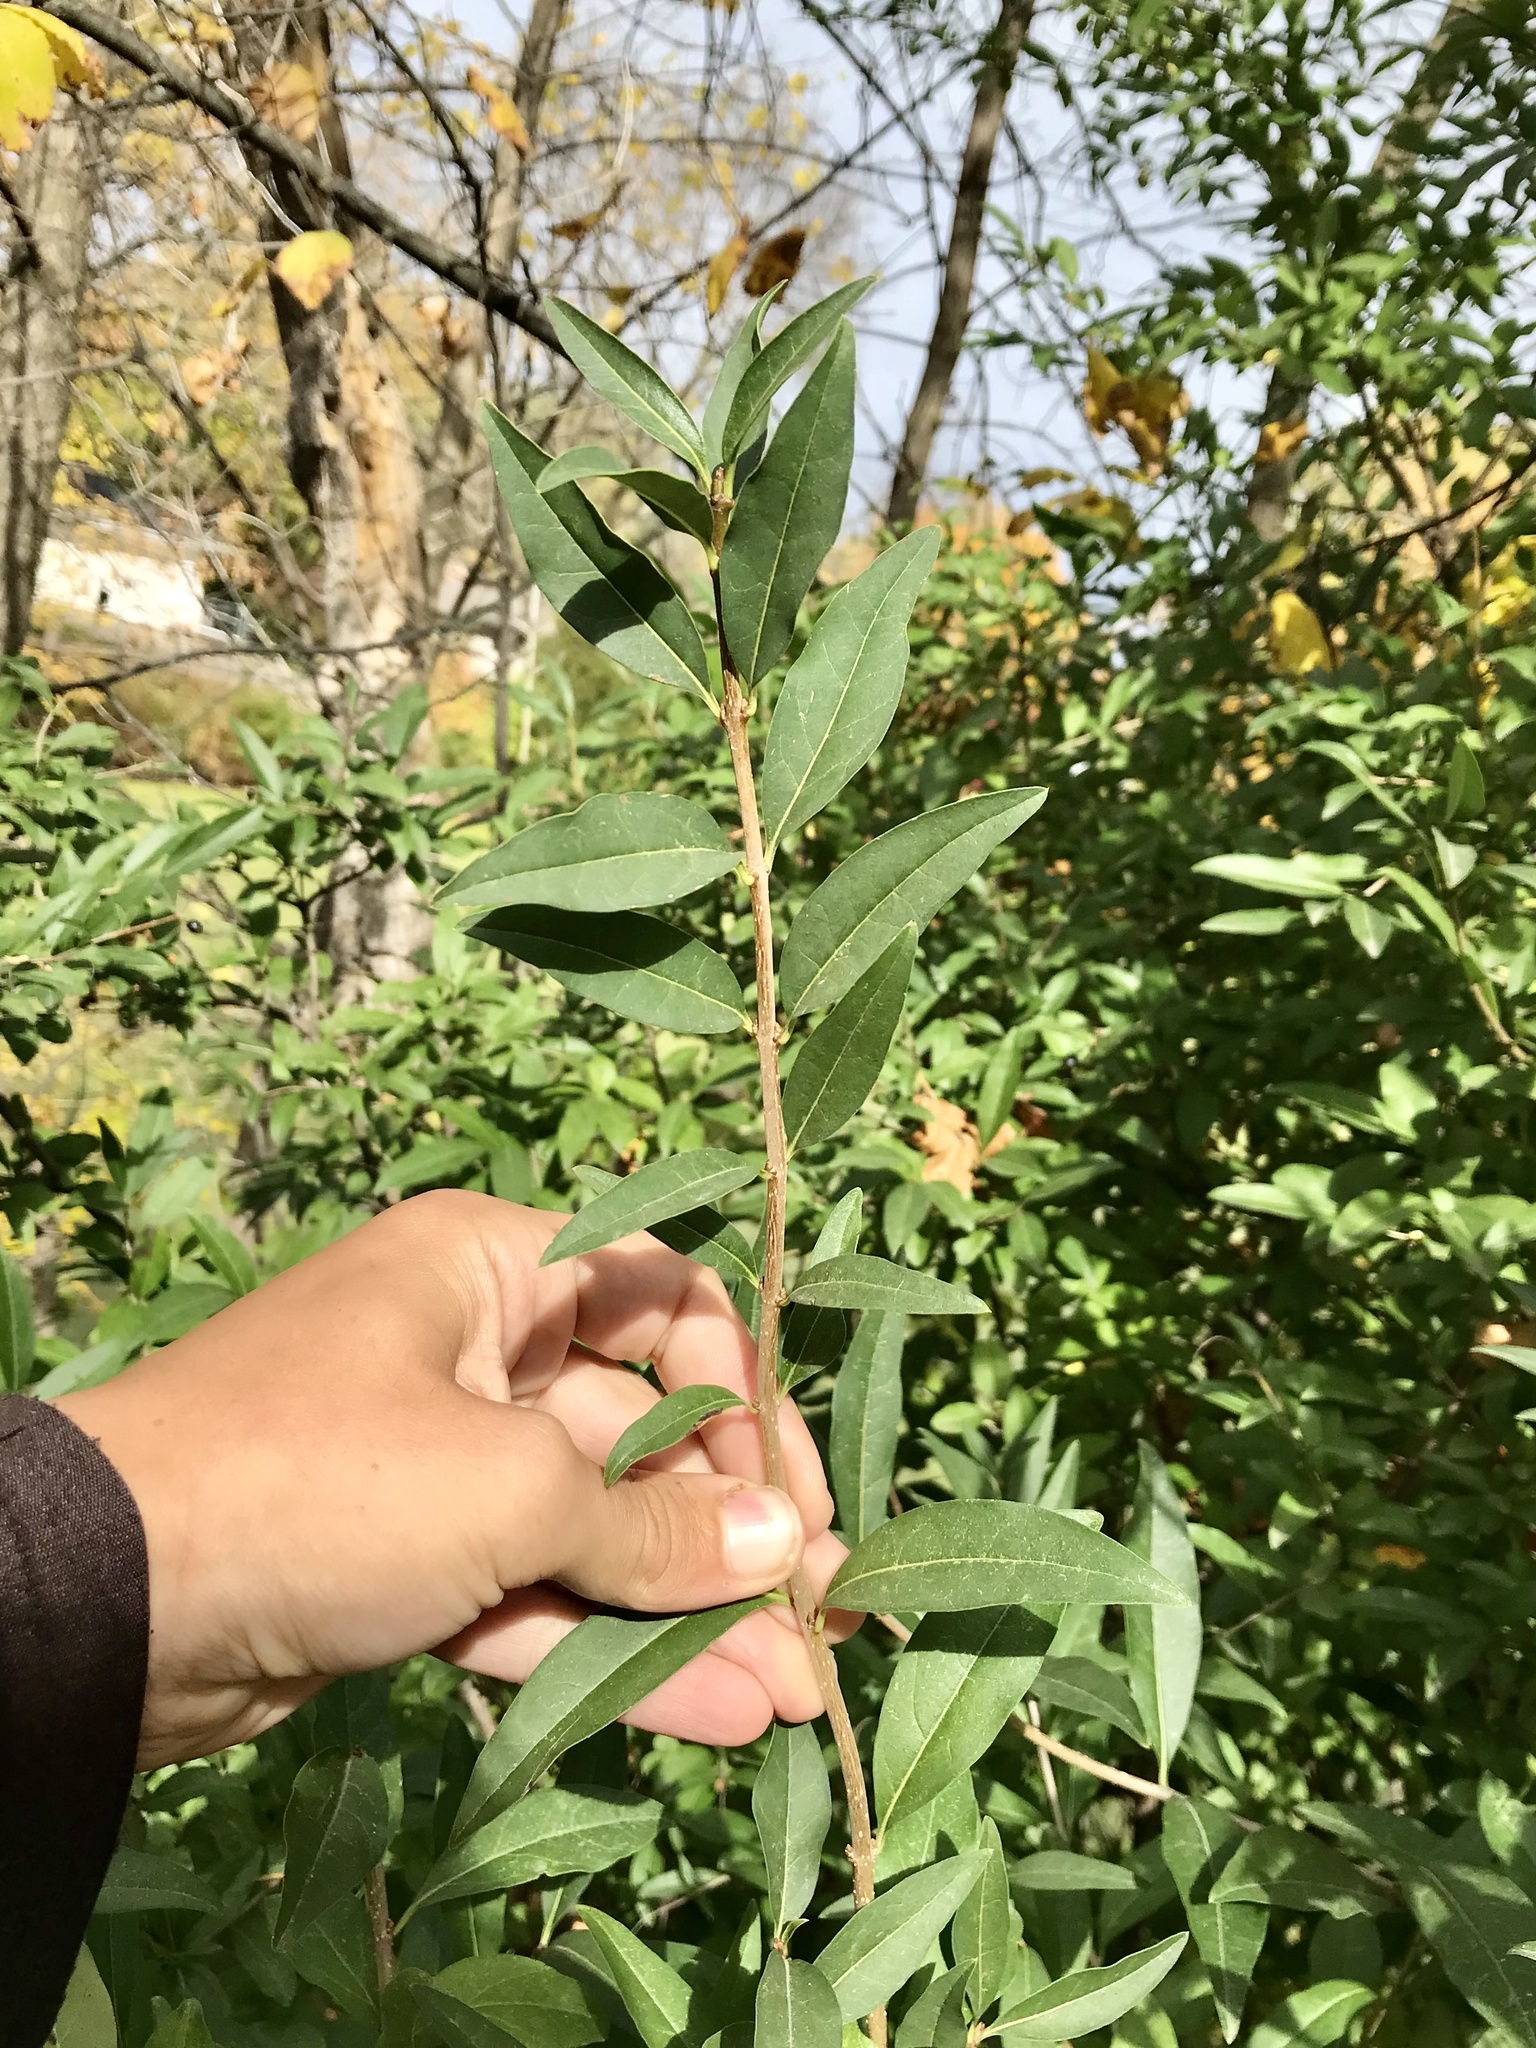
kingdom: Plantae
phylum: Tracheophyta
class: Magnoliopsida
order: Lamiales
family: Oleaceae
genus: Ligustrum
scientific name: Ligustrum vulgare
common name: Wild privet
